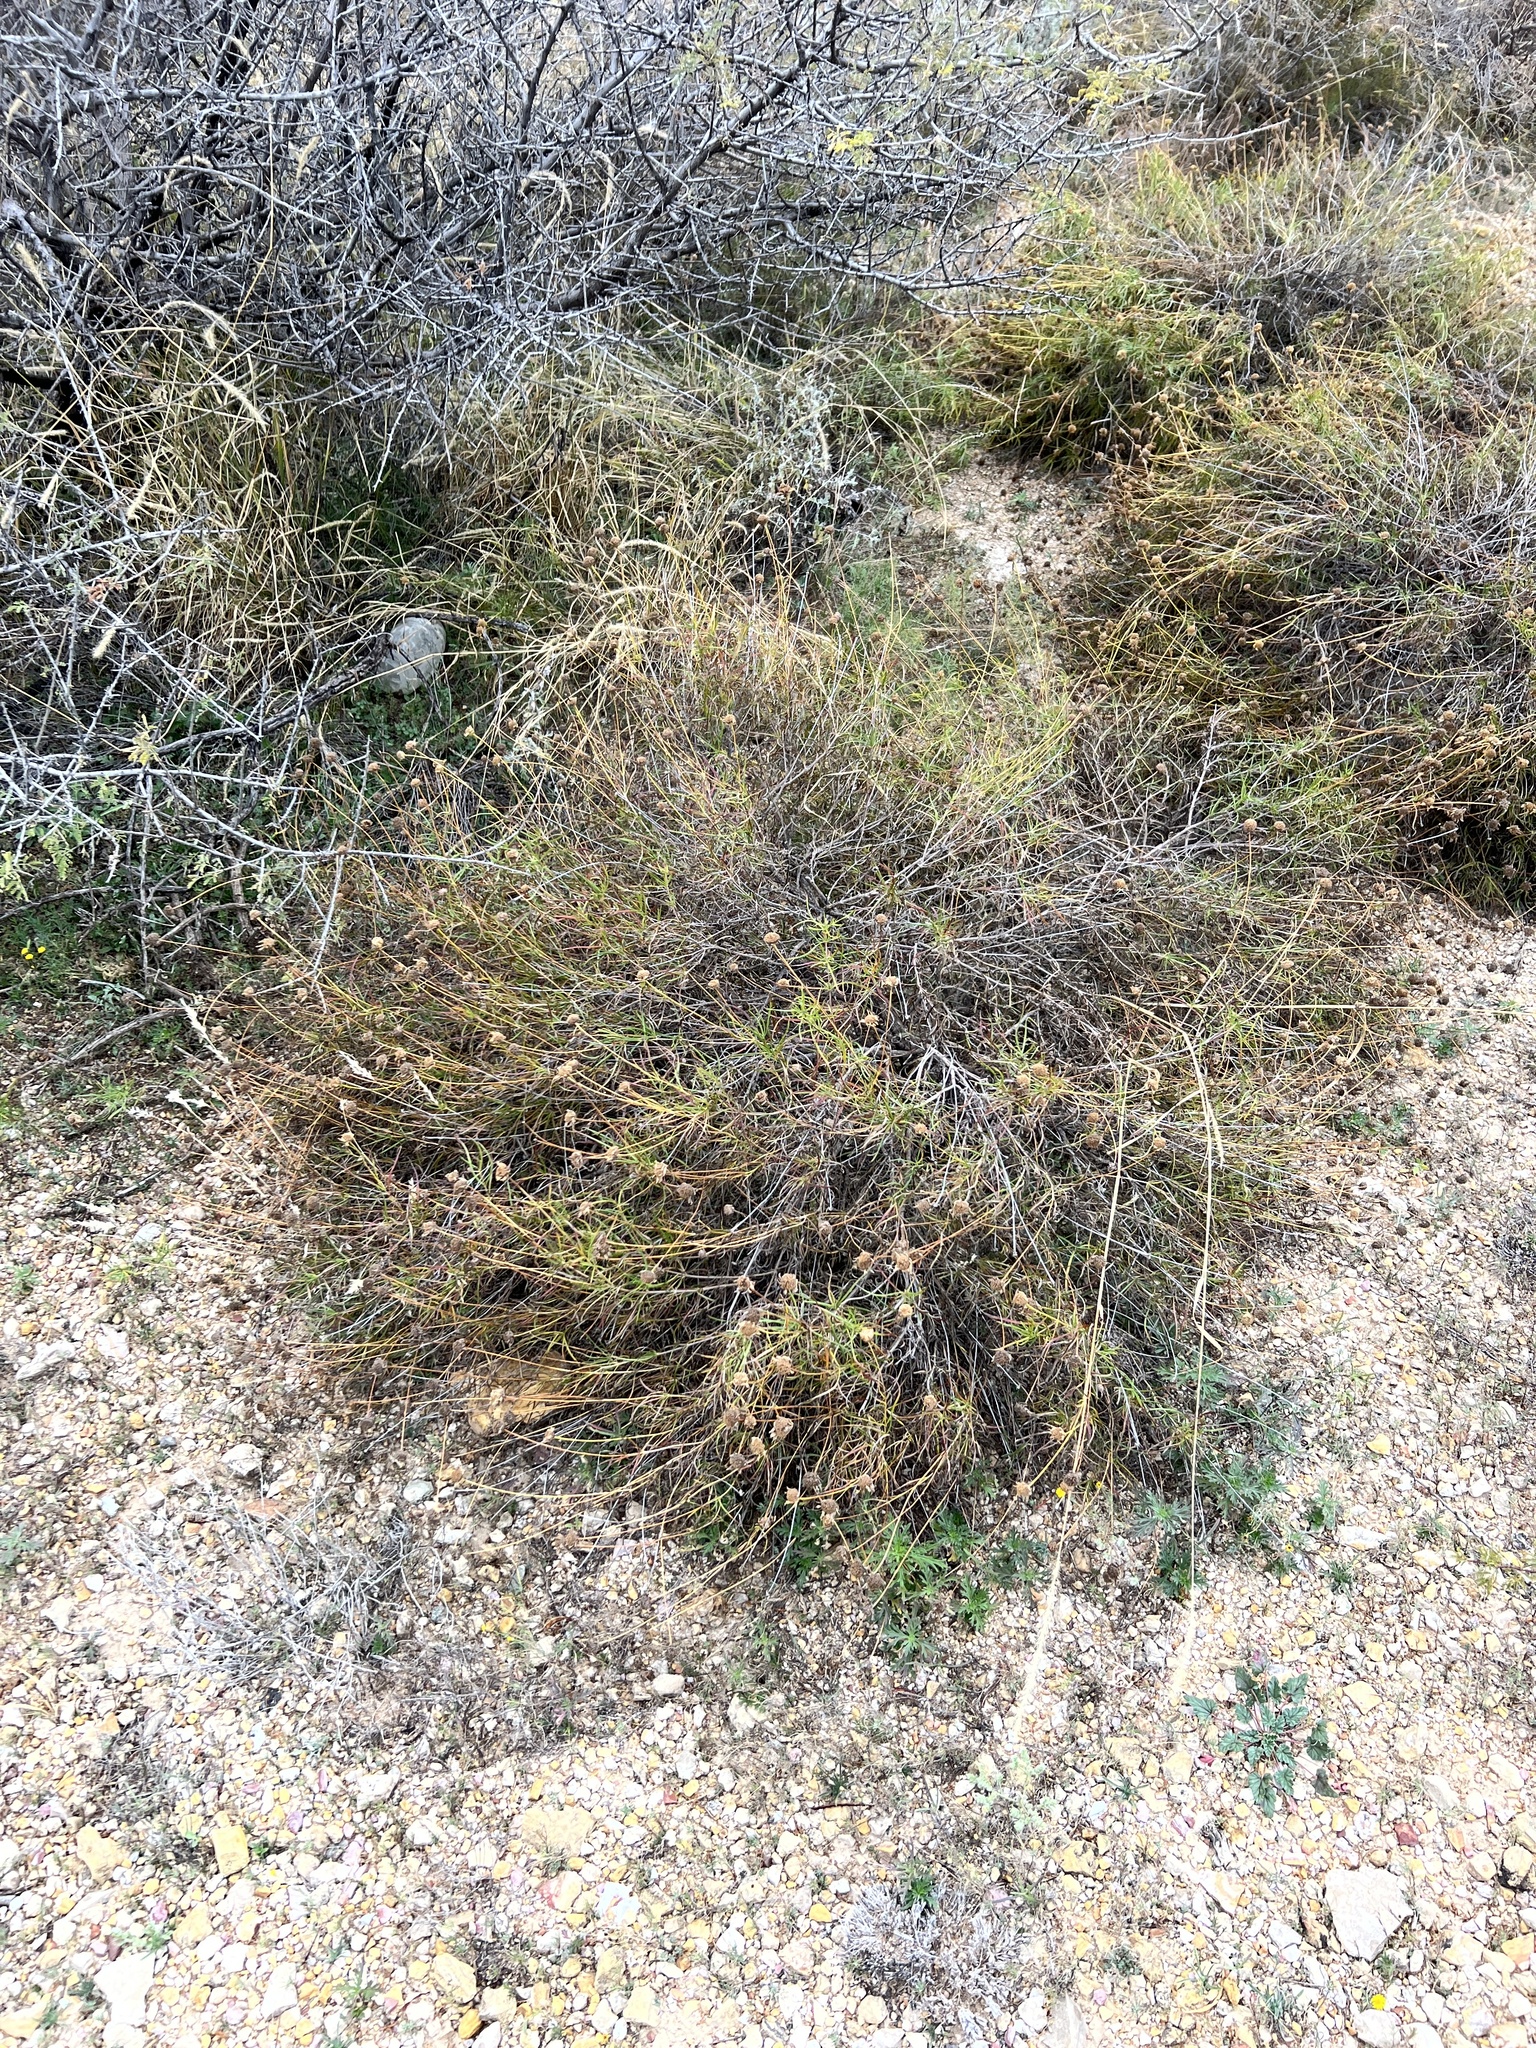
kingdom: Plantae
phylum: Tracheophyta
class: Magnoliopsida
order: Asterales
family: Asteraceae
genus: Sidneya
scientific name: Sidneya tenuifolia
